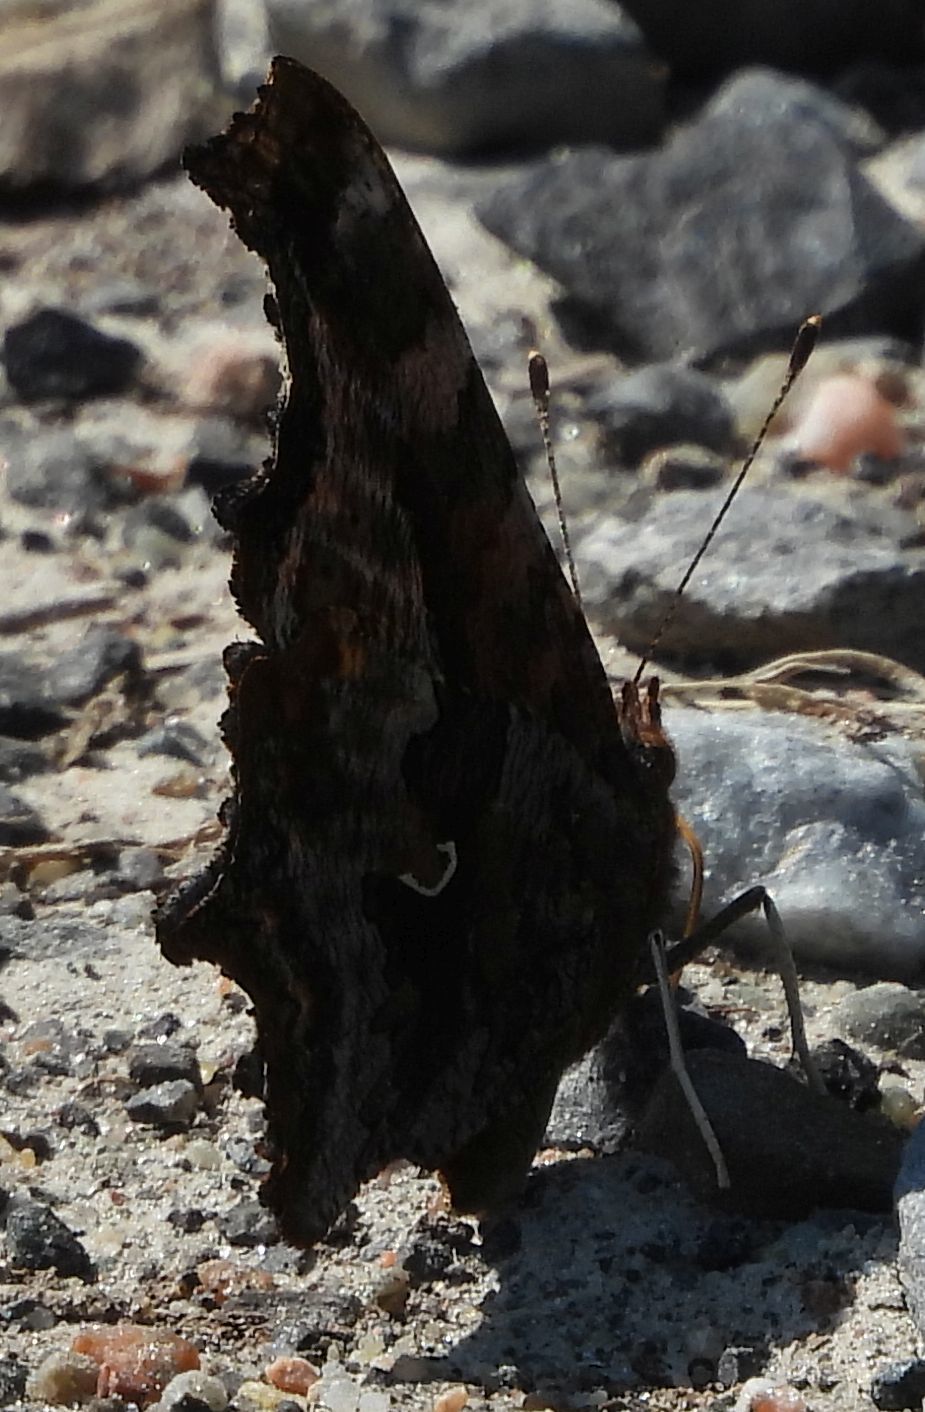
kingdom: Animalia
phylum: Arthropoda
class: Insecta
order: Lepidoptera
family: Nymphalidae
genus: Polygonia
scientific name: Polygonia comma
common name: Eastern comma
